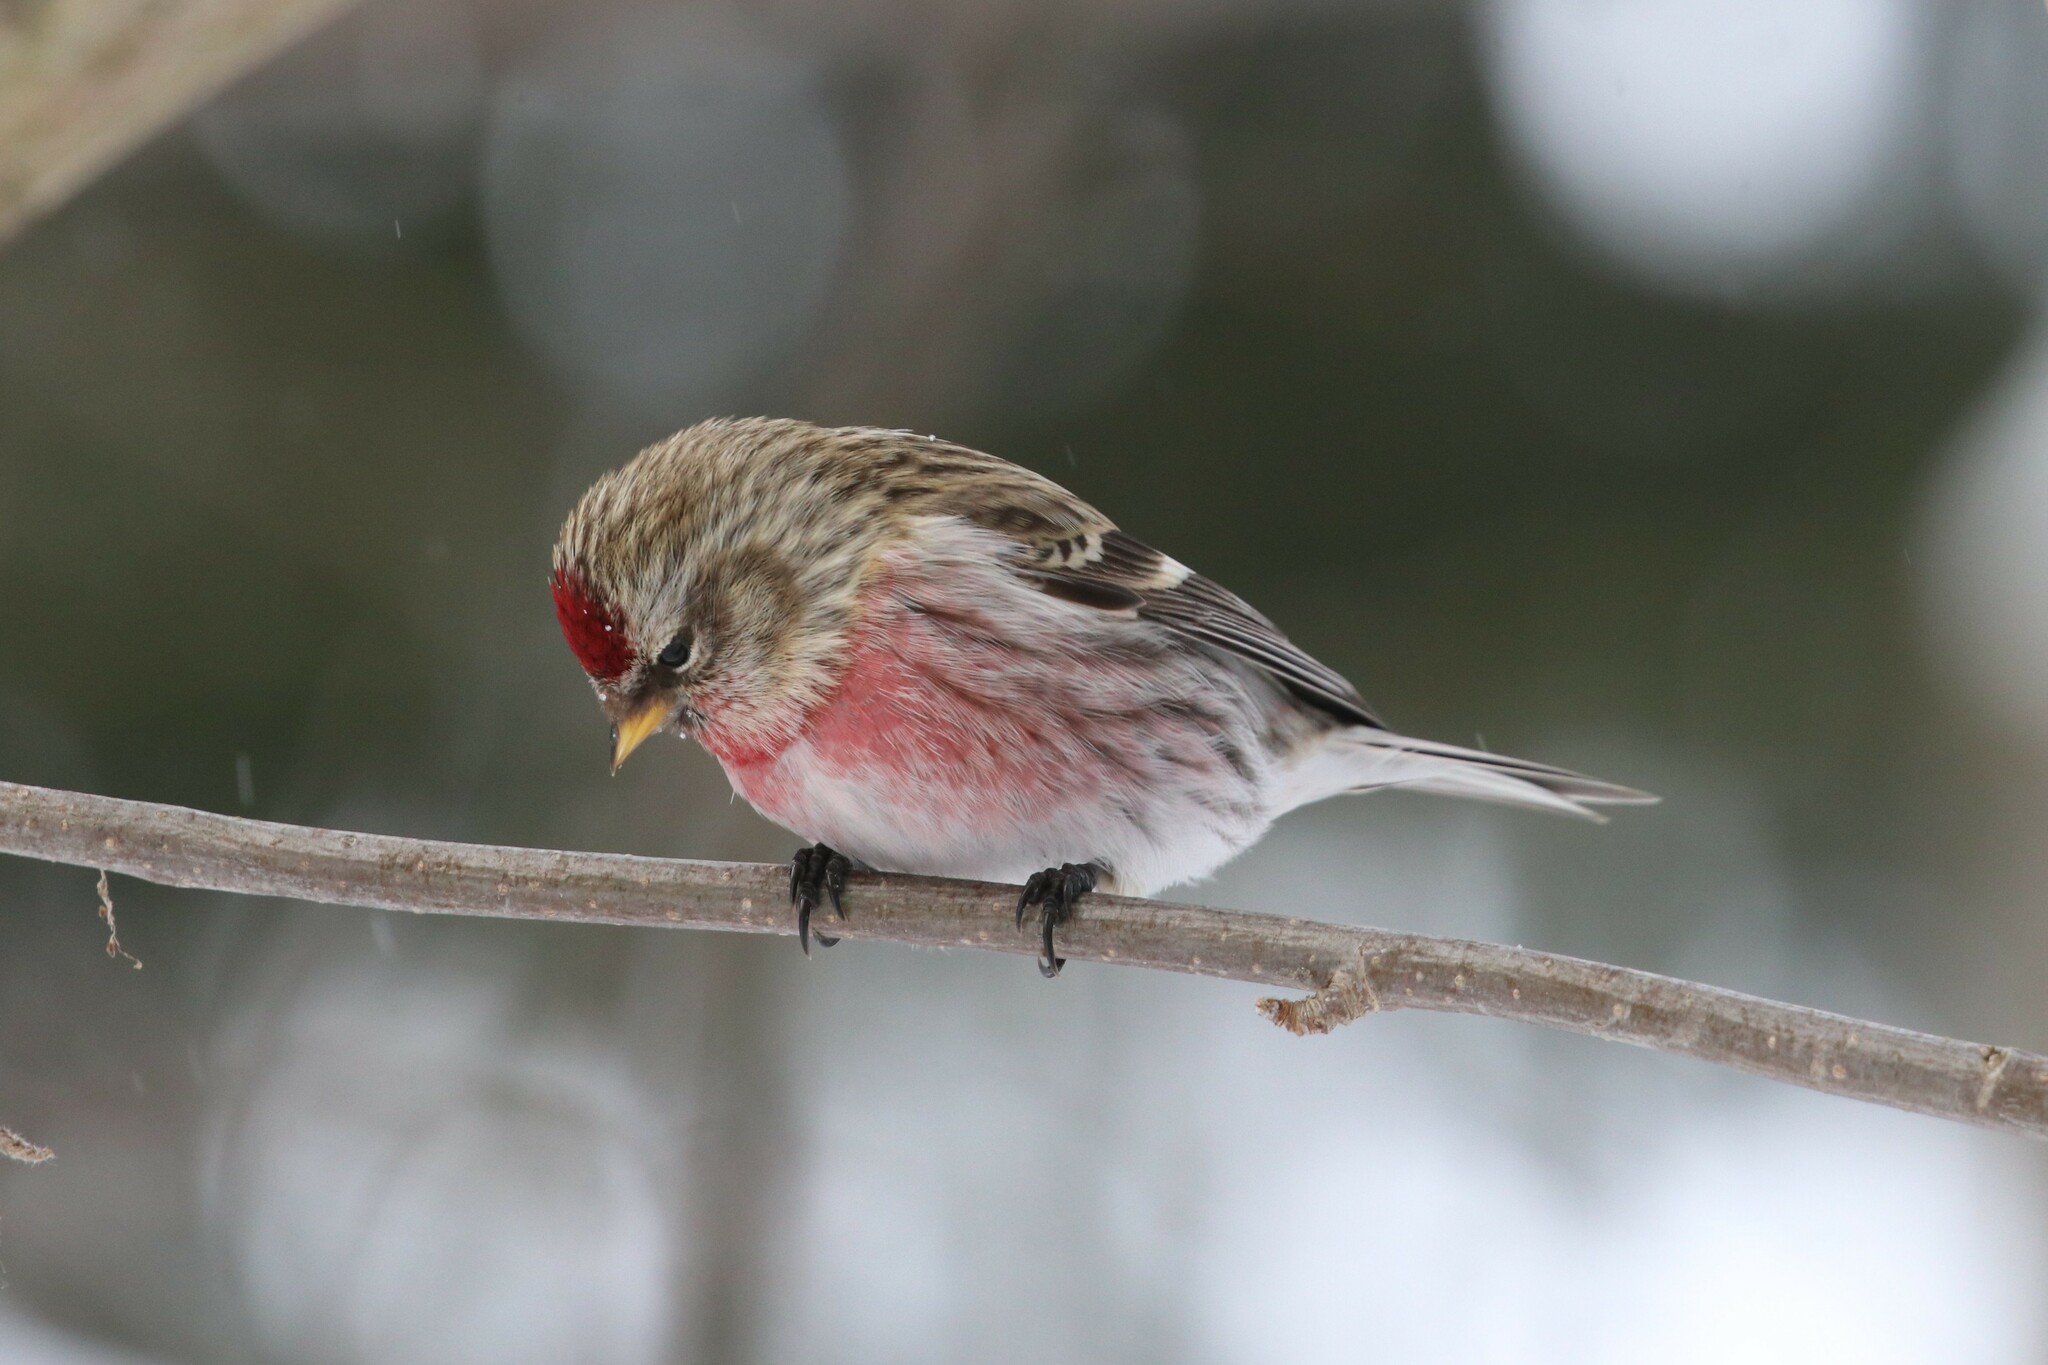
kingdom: Animalia
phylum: Chordata
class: Aves
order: Passeriformes
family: Fringillidae
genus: Acanthis
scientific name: Acanthis flammea
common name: Common redpoll
